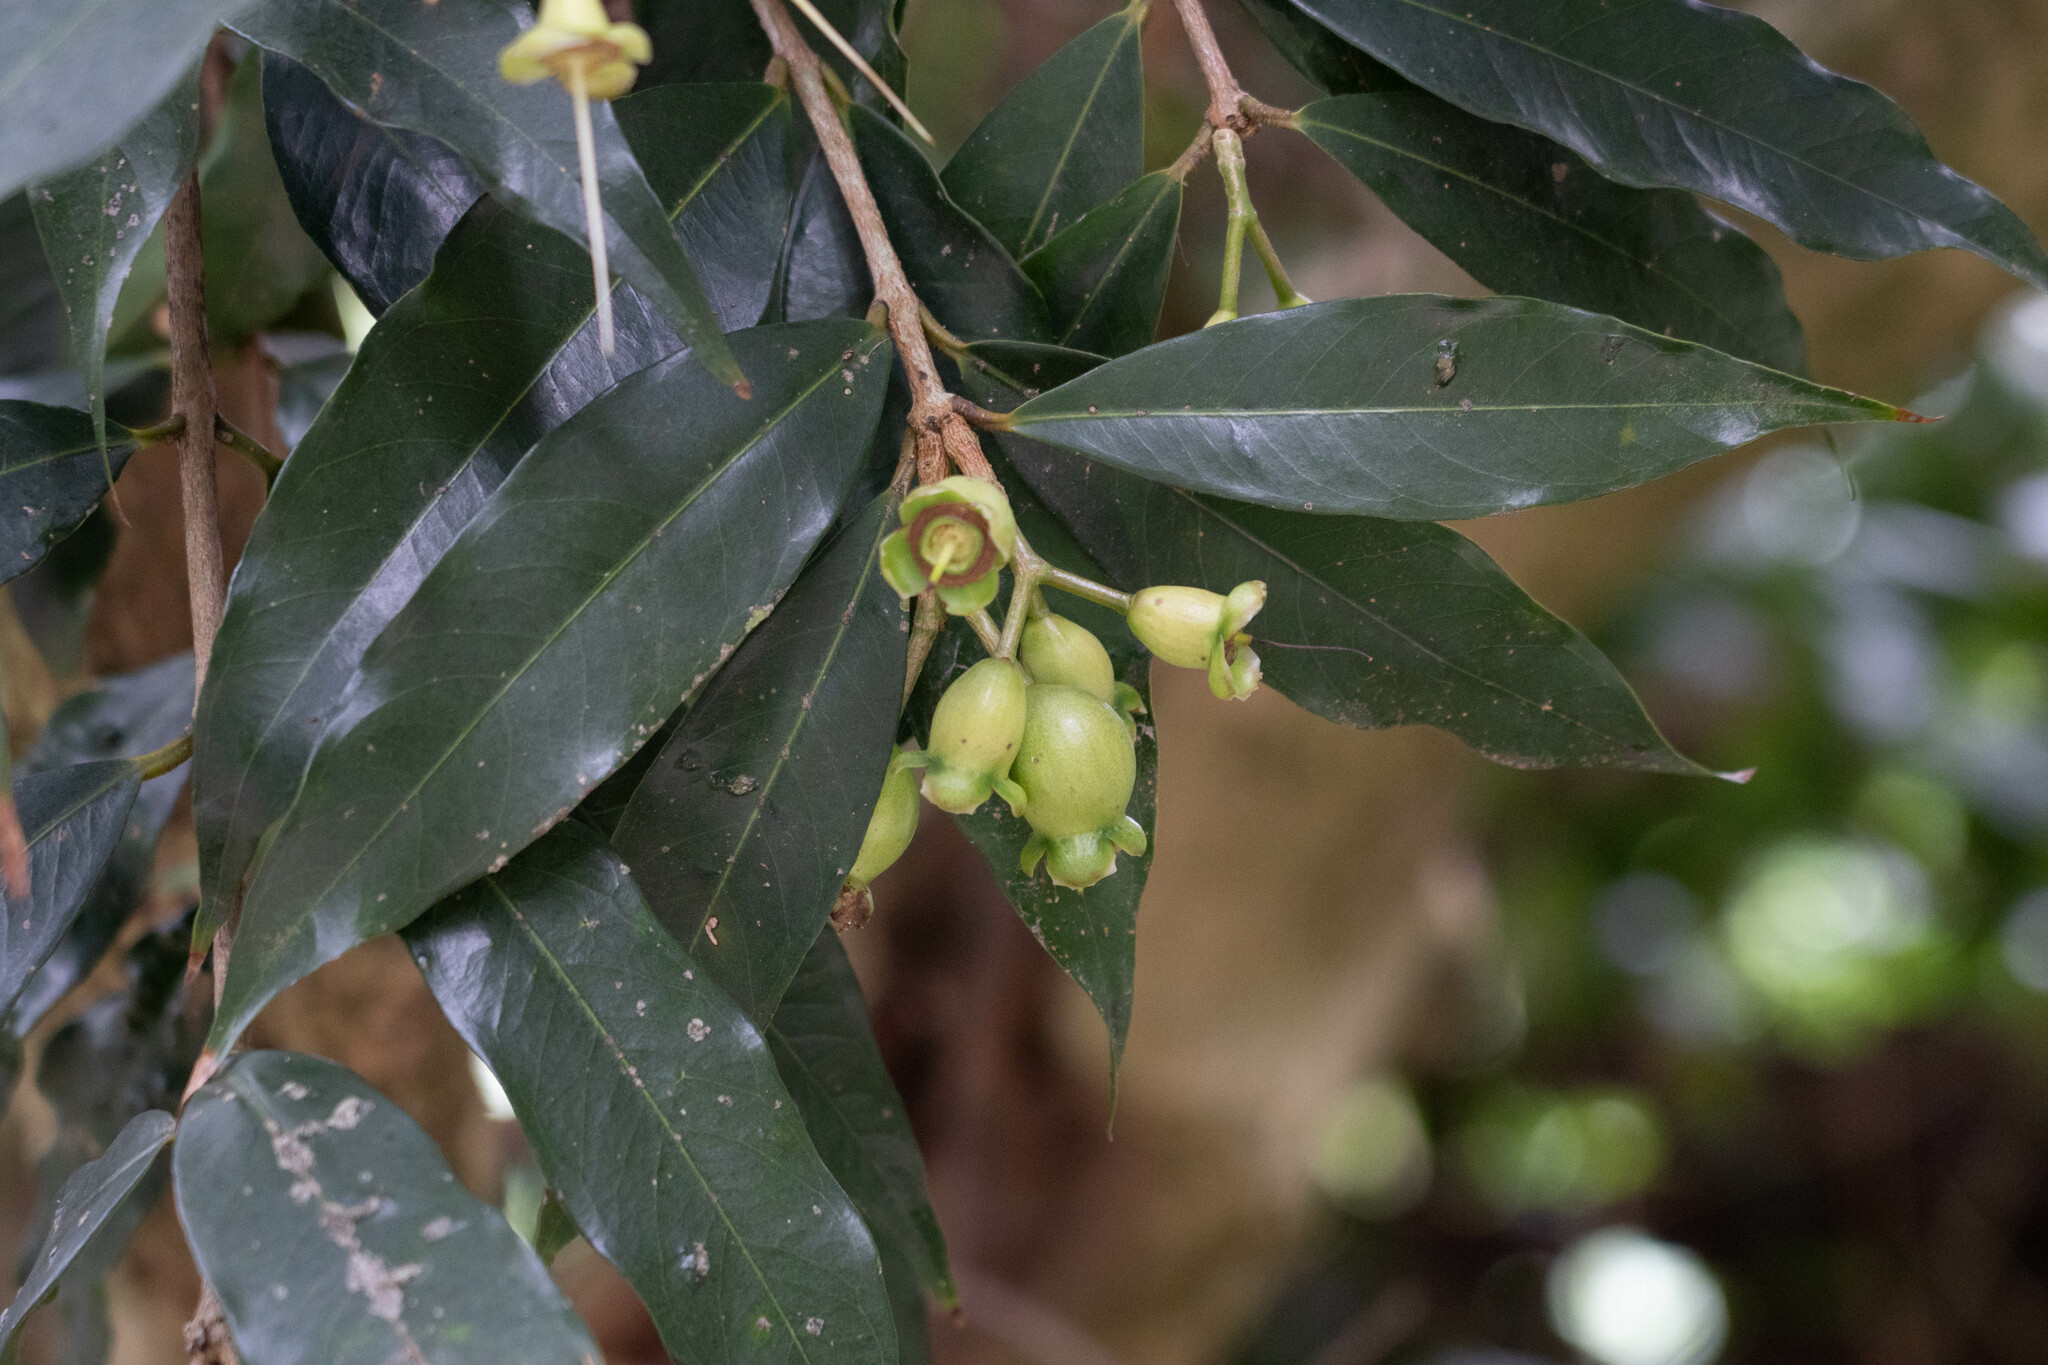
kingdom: Plantae
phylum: Tracheophyta
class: Magnoliopsida
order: Myrtales
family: Myrtaceae
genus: Syzygium
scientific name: Syzygium jambos
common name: Malabar plum
